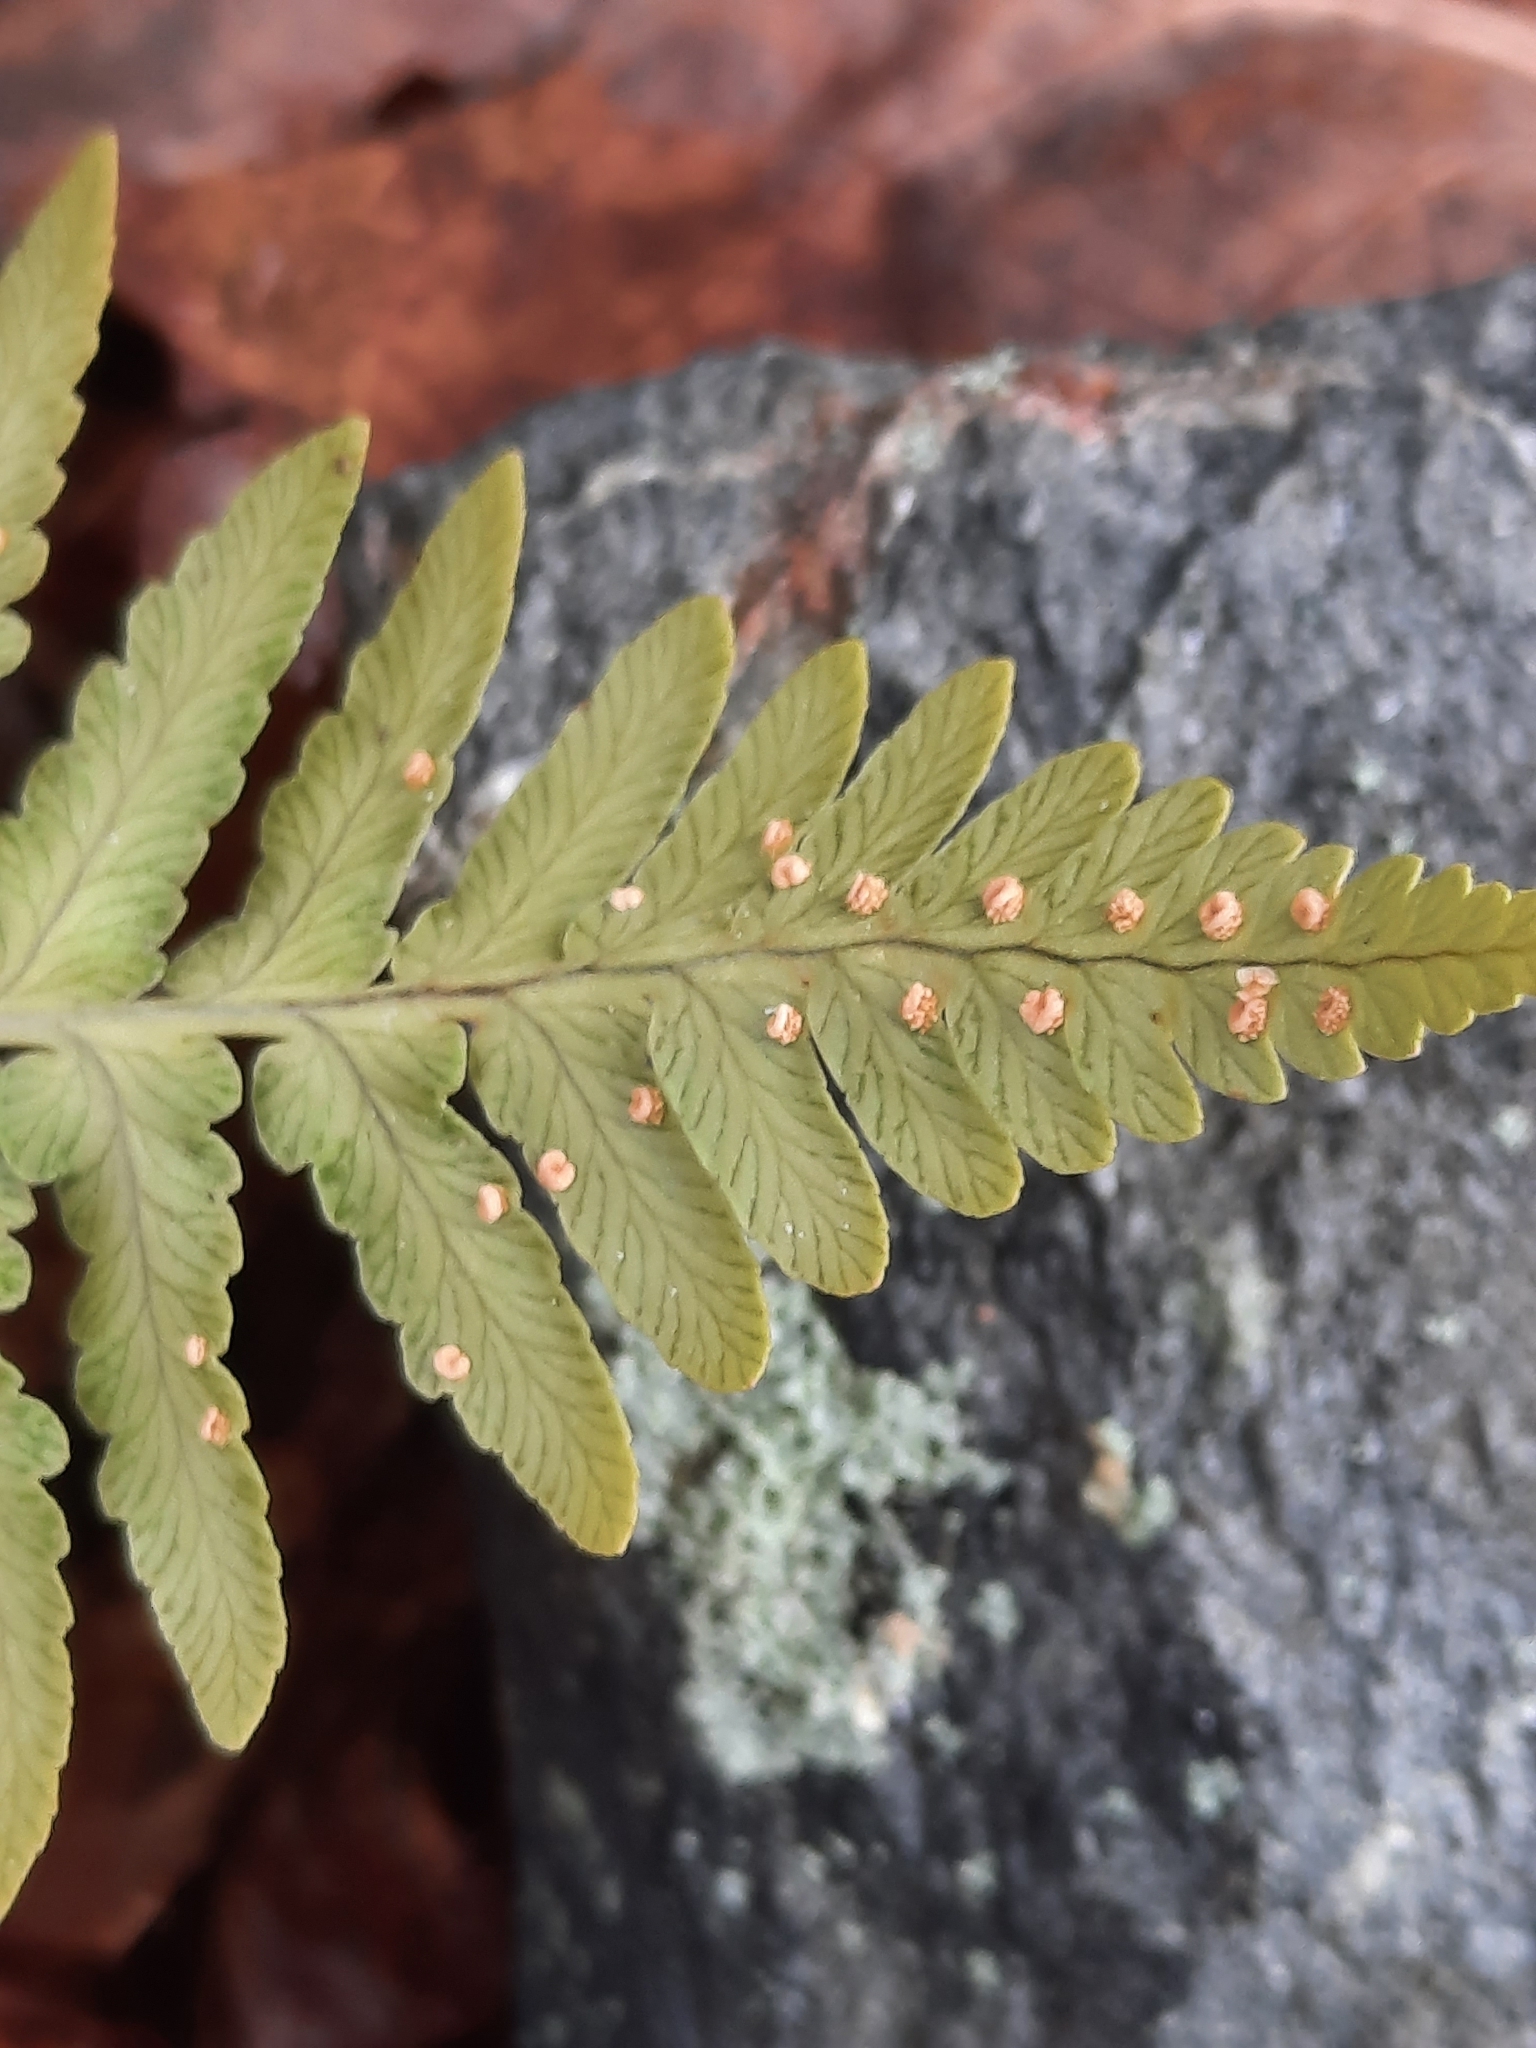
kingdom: Plantae
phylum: Tracheophyta
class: Polypodiopsida
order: Polypodiales
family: Dryopteridaceae
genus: Dryopteris
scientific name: Dryopteris marginalis
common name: Marginal wood fern
